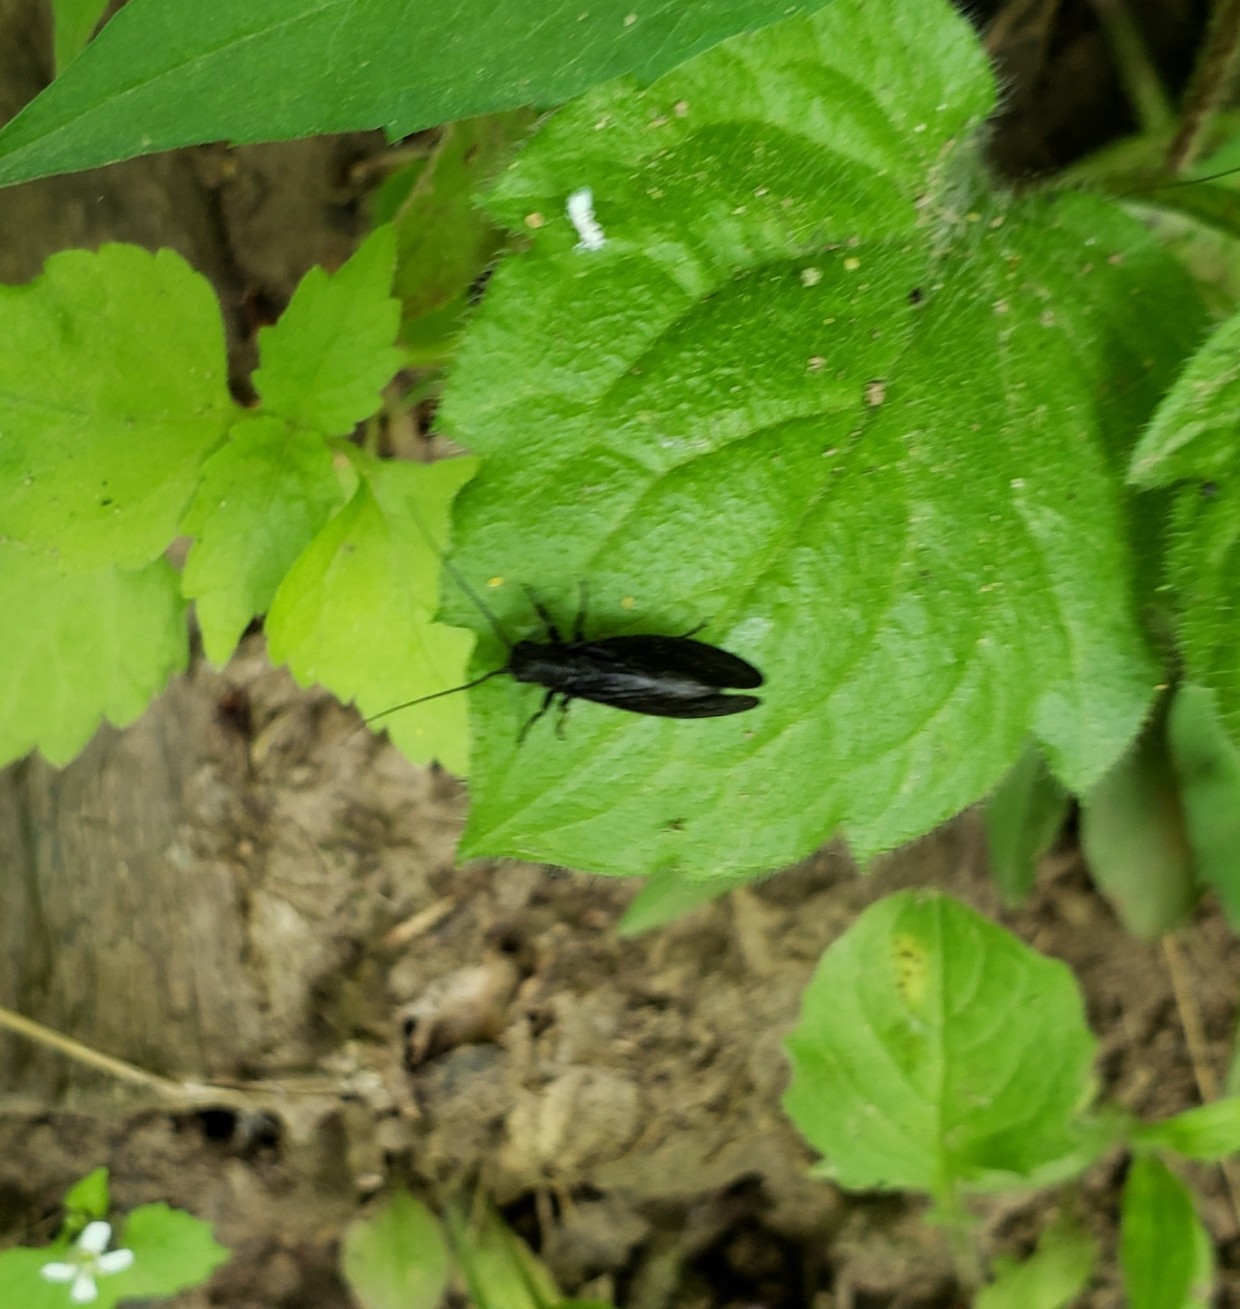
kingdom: Animalia
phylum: Arthropoda
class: Insecta
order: Megaloptera
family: Sialidae
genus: Sialis
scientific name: Sialis
